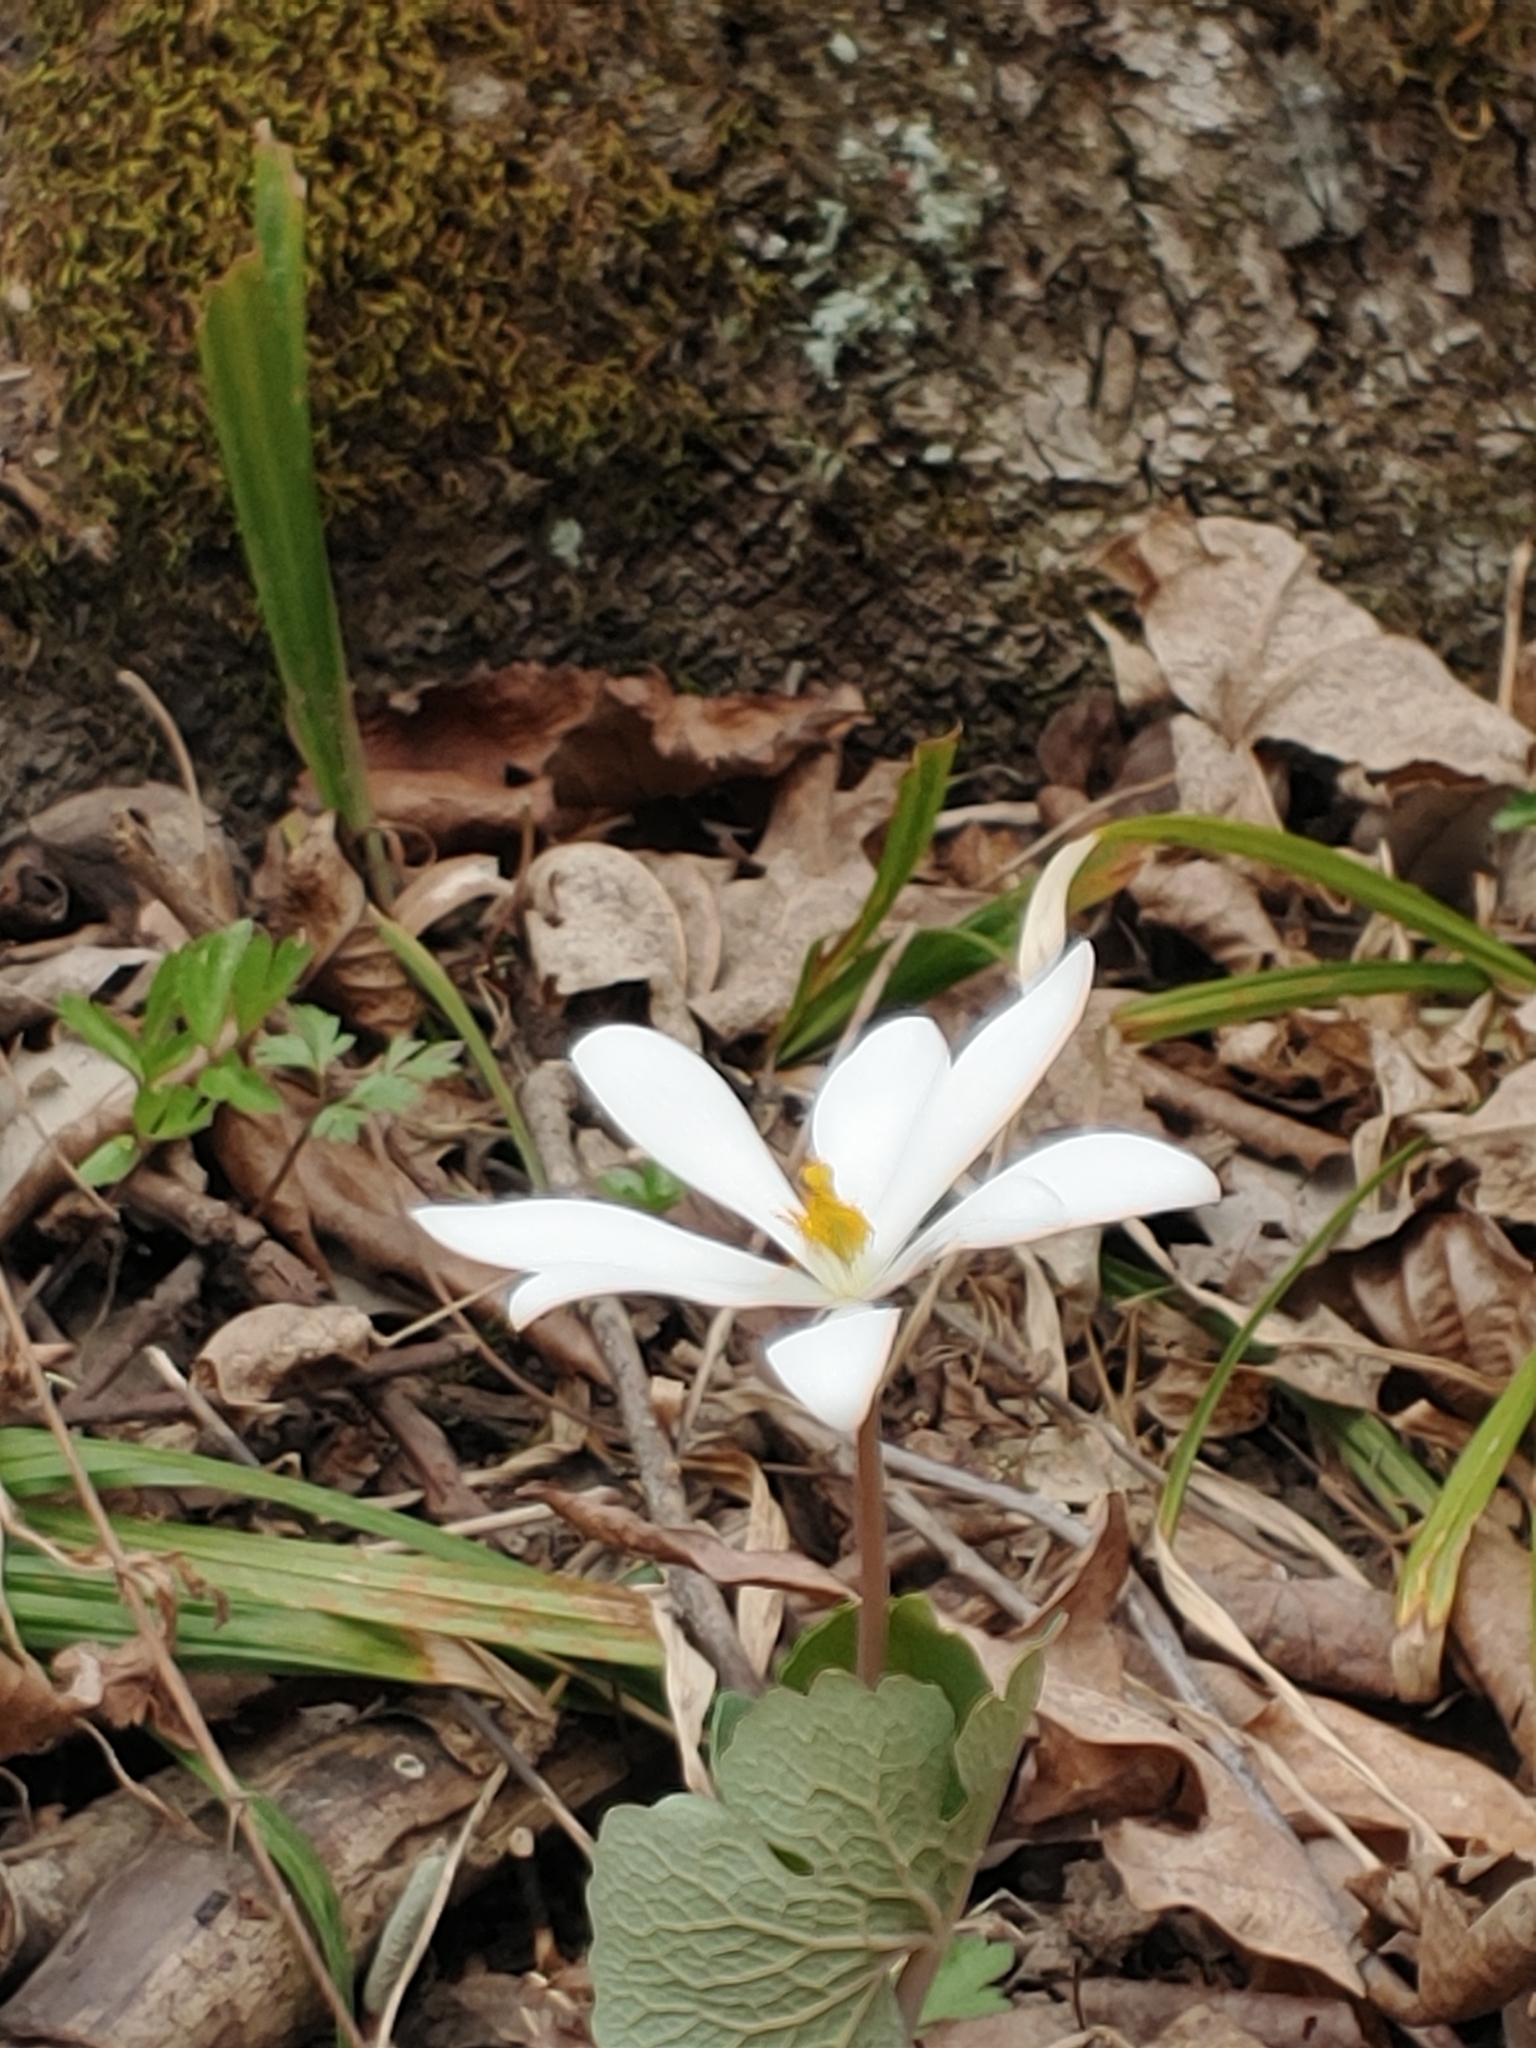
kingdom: Plantae
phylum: Tracheophyta
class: Magnoliopsida
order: Ranunculales
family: Papaveraceae
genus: Sanguinaria
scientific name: Sanguinaria canadensis
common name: Bloodroot
